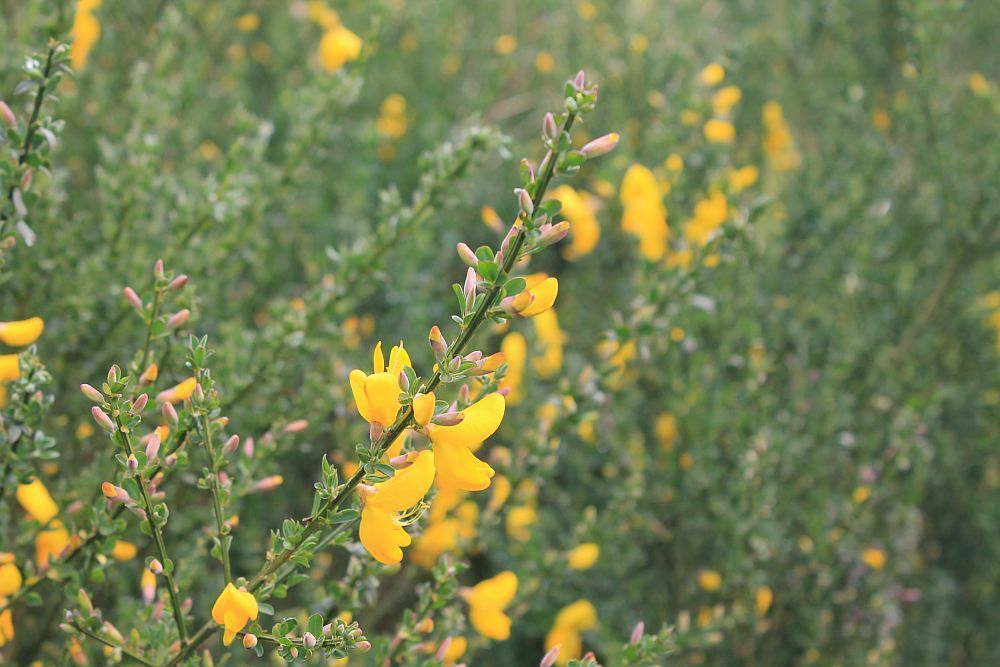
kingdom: Plantae
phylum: Tracheophyta
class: Magnoliopsida
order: Fabales
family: Fabaceae
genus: Cytisus
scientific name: Cytisus scoparius
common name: Scotch broom
